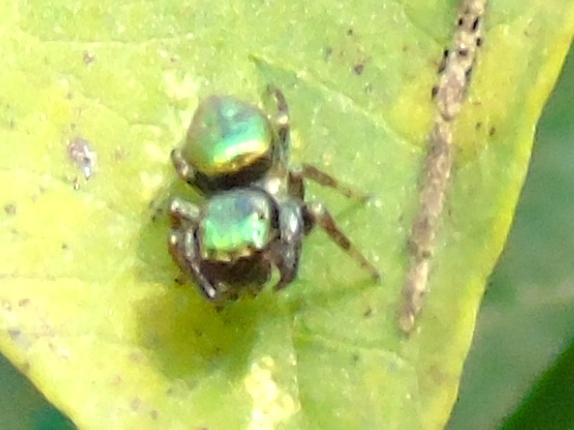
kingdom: Animalia
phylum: Arthropoda
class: Arachnida
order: Araneae
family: Salticidae
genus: Sassacus
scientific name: Sassacus papenhoei
